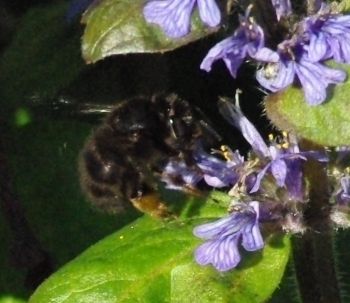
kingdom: Animalia
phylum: Arthropoda
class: Insecta
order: Hymenoptera
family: Apidae
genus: Anthophora
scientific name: Anthophora plumipes
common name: Hairy-footed flower bee
